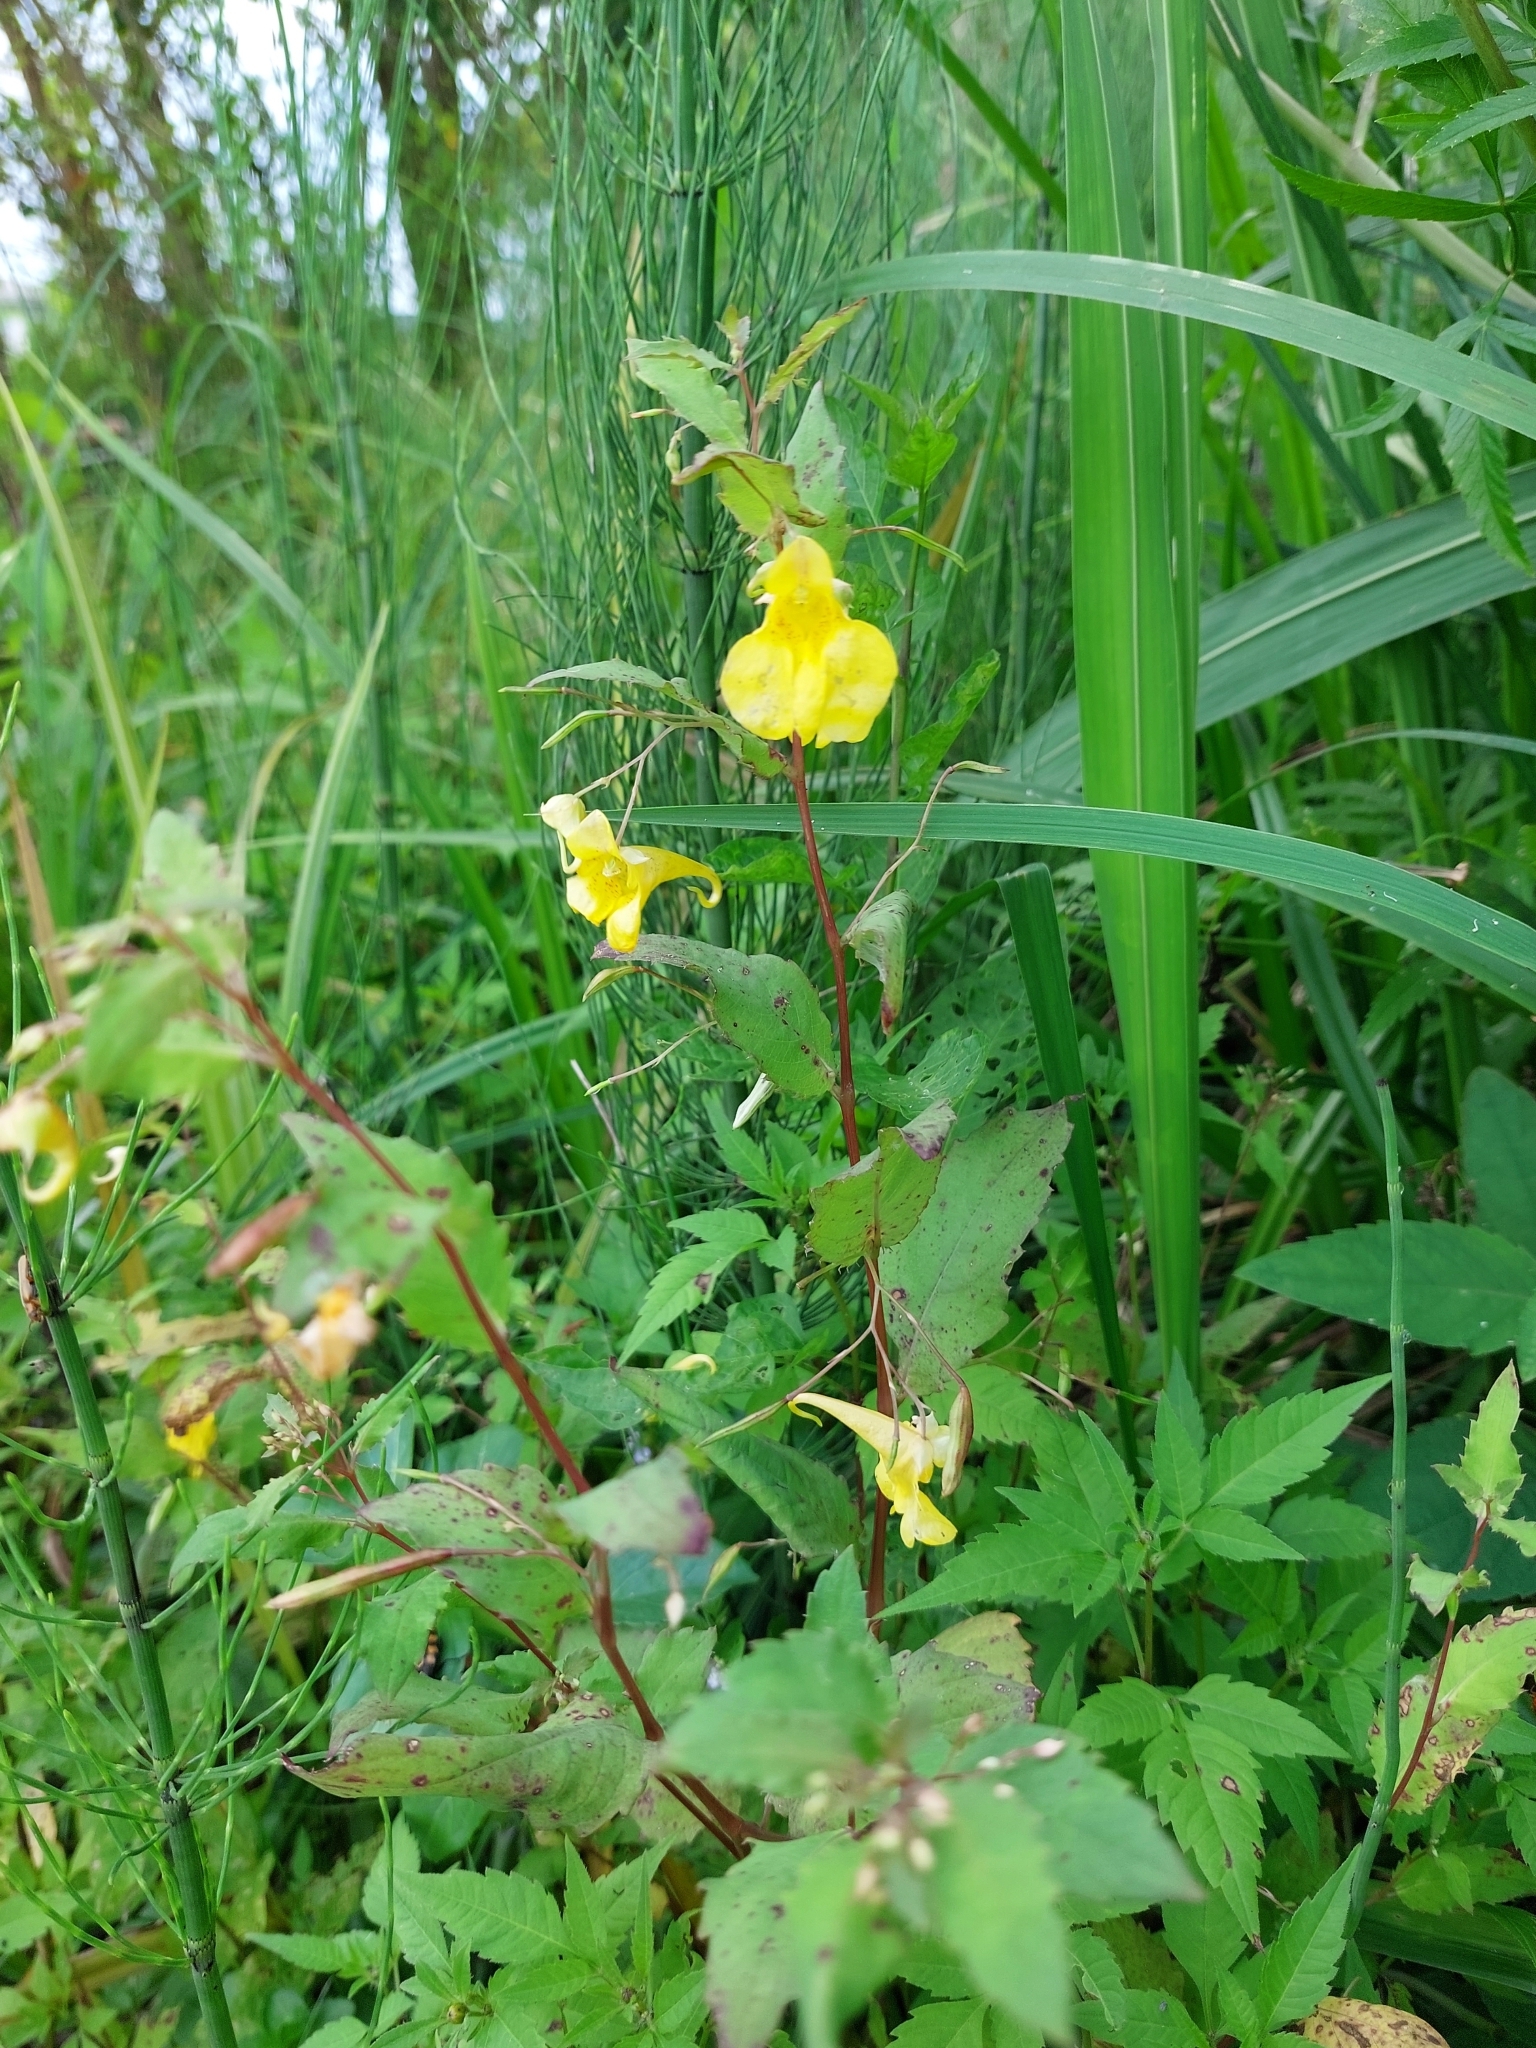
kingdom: Plantae
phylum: Tracheophyta
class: Magnoliopsida
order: Ericales
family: Balsaminaceae
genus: Impatiens
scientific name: Impatiens noli-tangere
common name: Touch-me-not balsam
